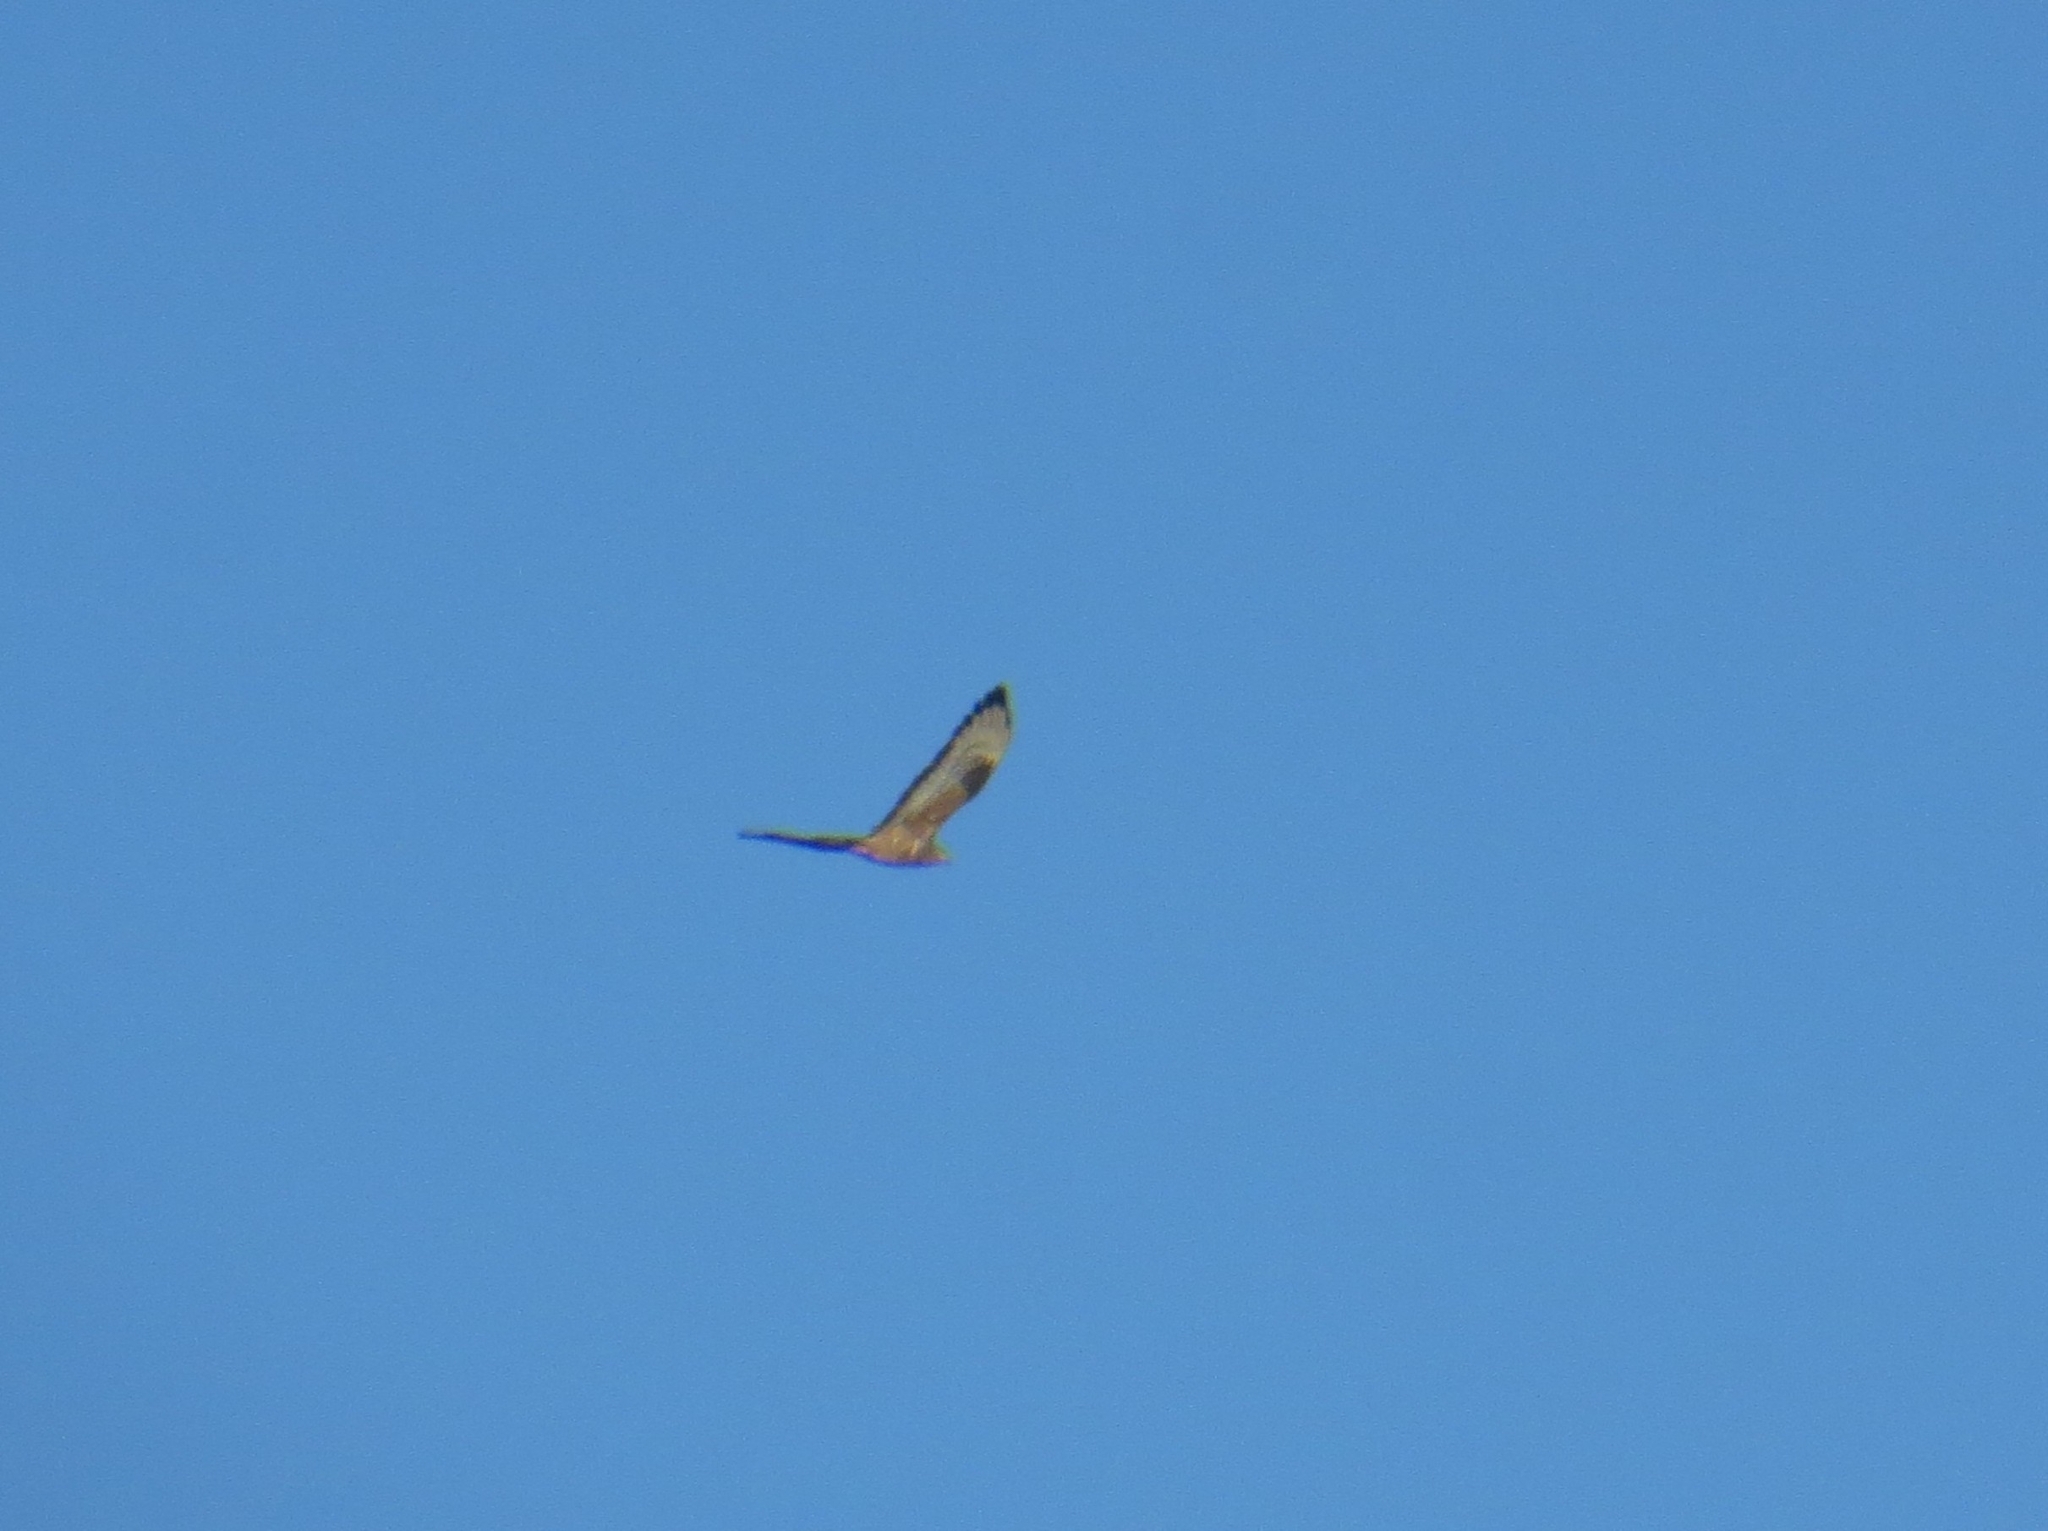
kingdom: Animalia
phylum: Chordata
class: Aves
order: Accipitriformes
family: Accipitridae
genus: Pernis
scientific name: Pernis apivorus
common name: European honey buzzard
